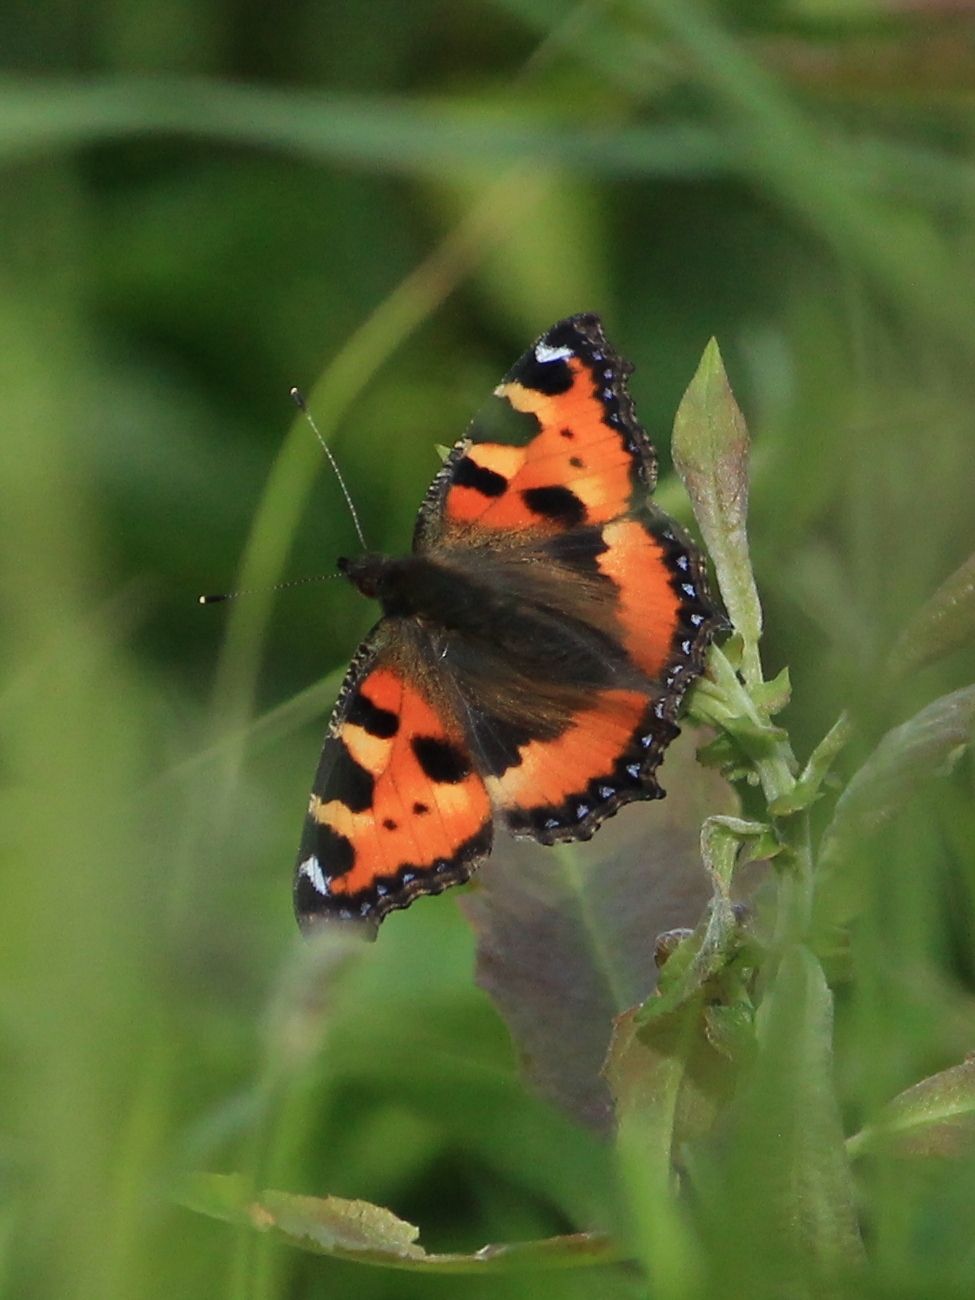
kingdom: Animalia
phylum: Arthropoda
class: Insecta
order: Lepidoptera
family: Nymphalidae
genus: Aglais
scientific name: Aglais urticae
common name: Small tortoiseshell
